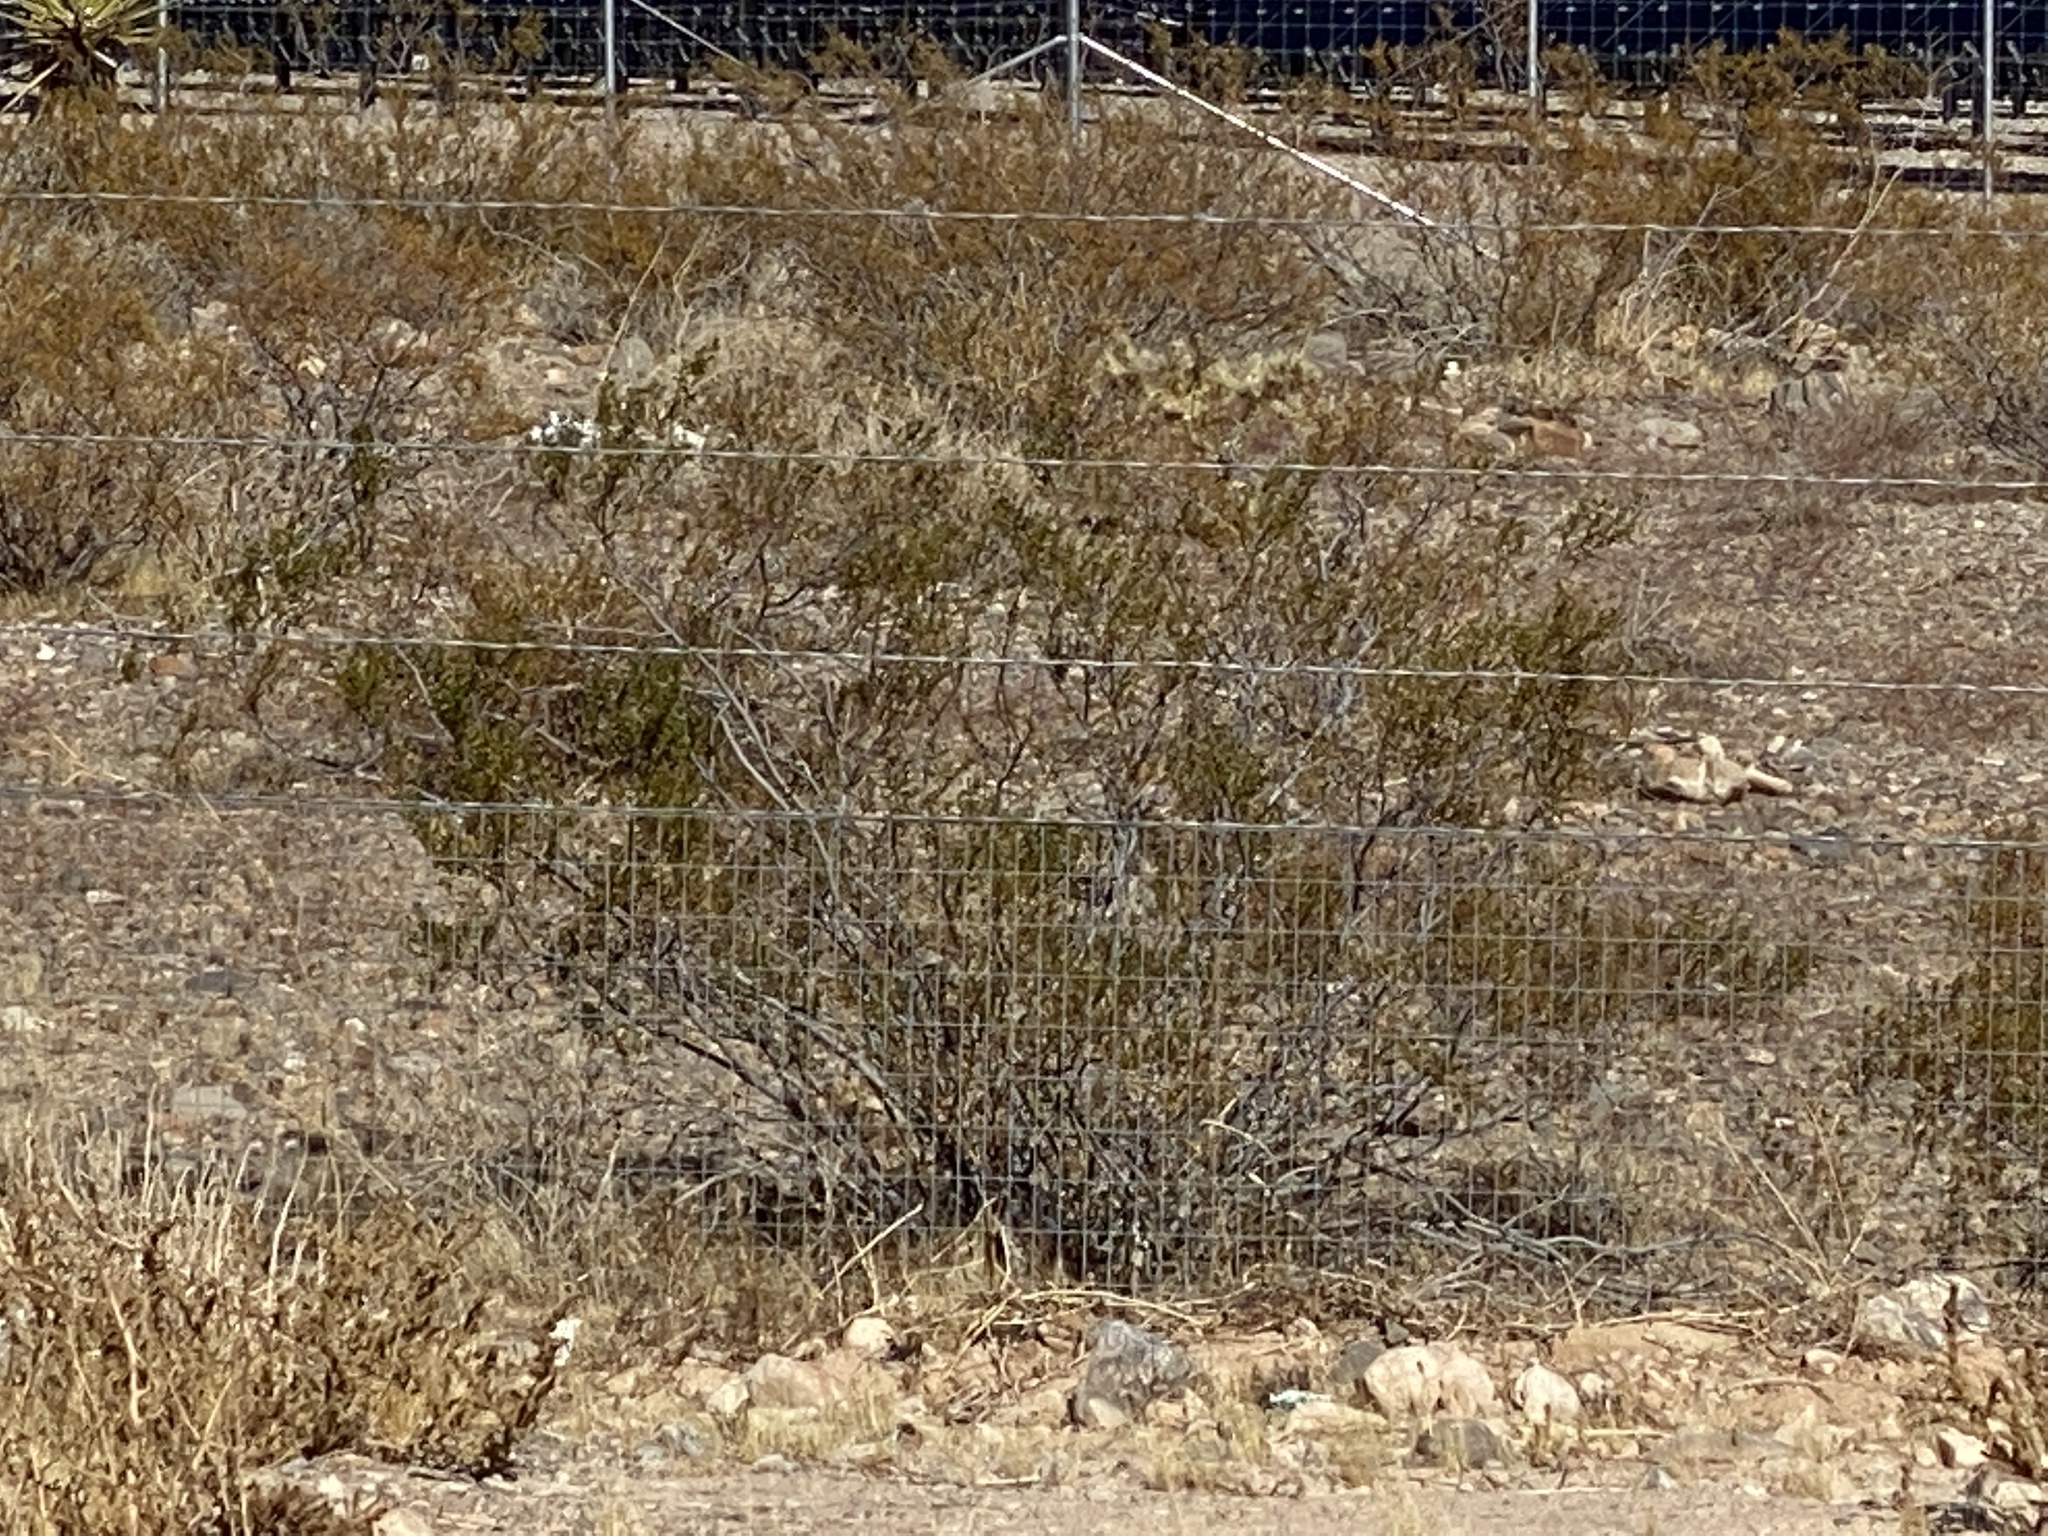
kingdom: Plantae
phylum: Tracheophyta
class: Magnoliopsida
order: Zygophyllales
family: Zygophyllaceae
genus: Larrea
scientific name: Larrea tridentata
